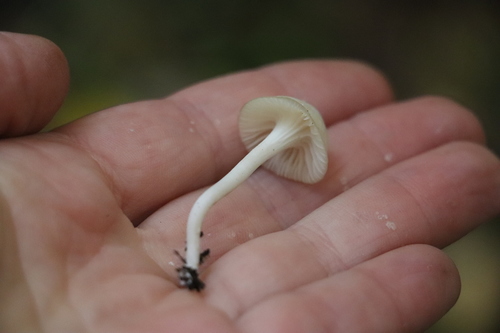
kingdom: Fungi
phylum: Basidiomycota
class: Agaricomycetes
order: Agaricales
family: Hygrophoraceae
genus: Cuphophyllus
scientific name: Cuphophyllus virgineus
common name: Snowy waxcap
